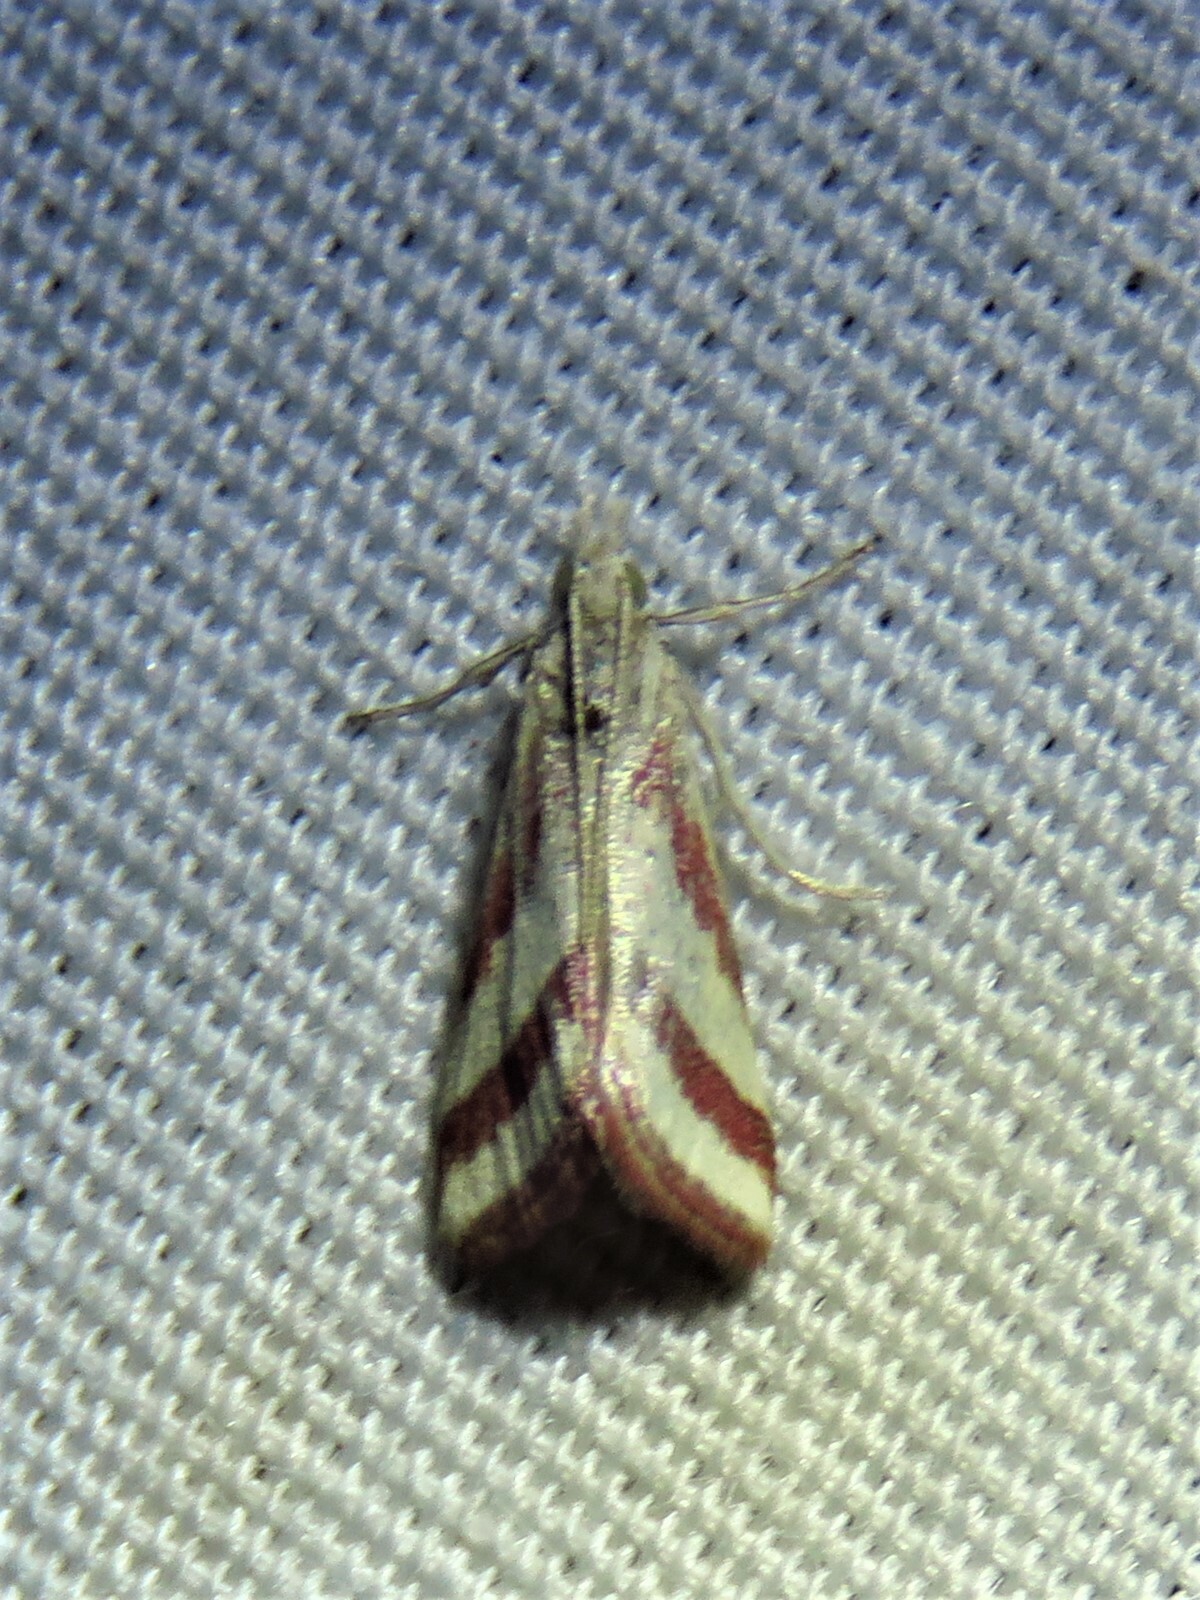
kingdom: Animalia
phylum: Arthropoda
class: Insecta
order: Lepidoptera
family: Crambidae
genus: Microtheoris
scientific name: Microtheoris vibicalis
